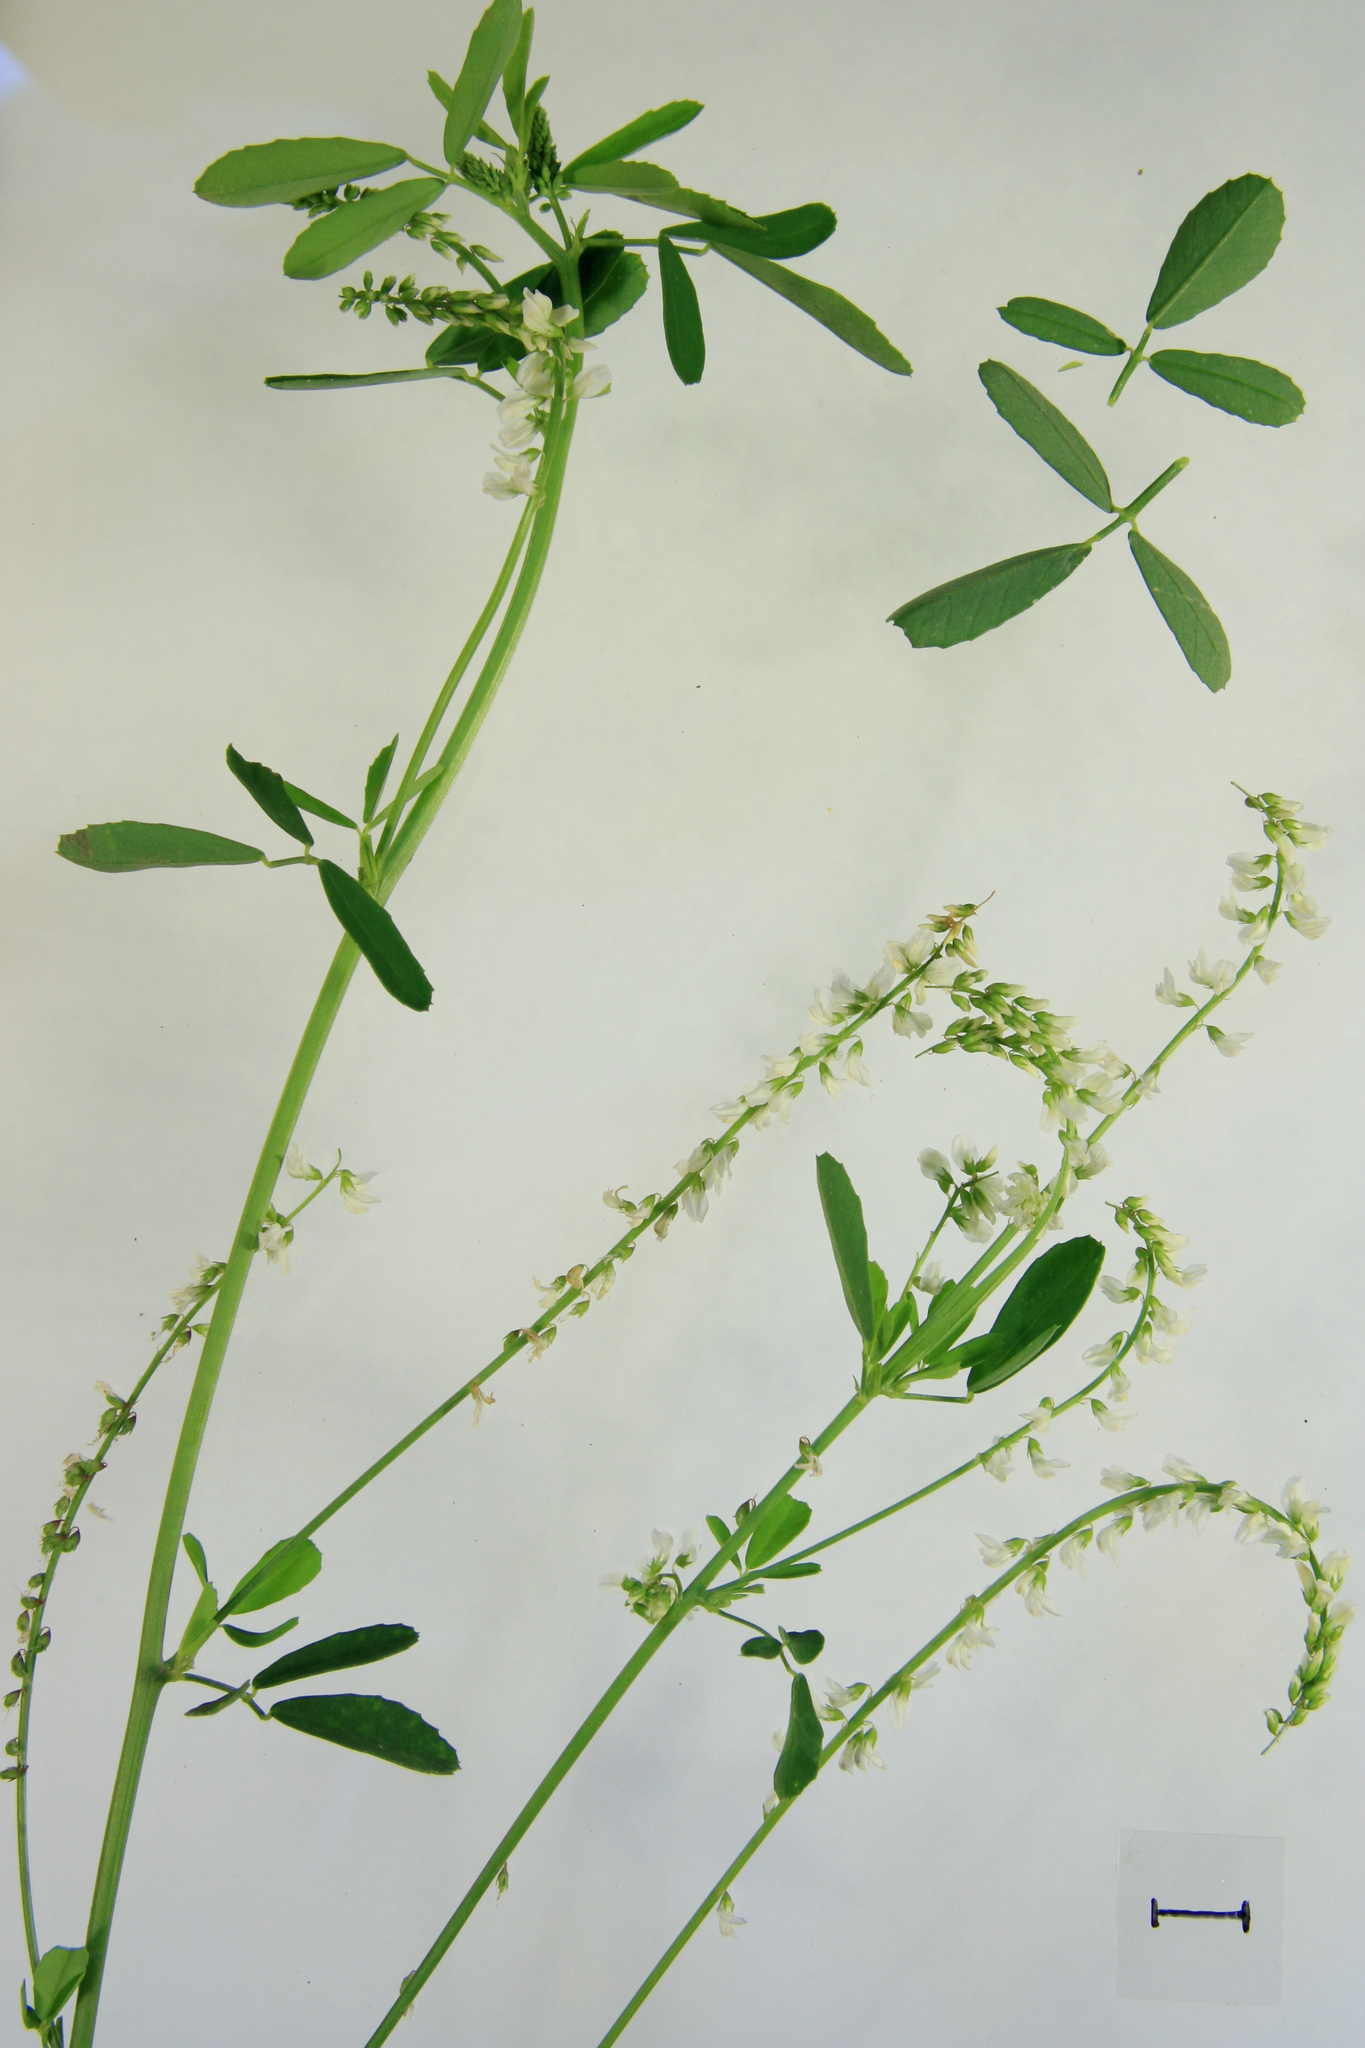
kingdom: Plantae
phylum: Tracheophyta
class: Magnoliopsida
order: Fabales
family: Fabaceae
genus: Melilotus
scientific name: Melilotus albus
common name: White melilot
